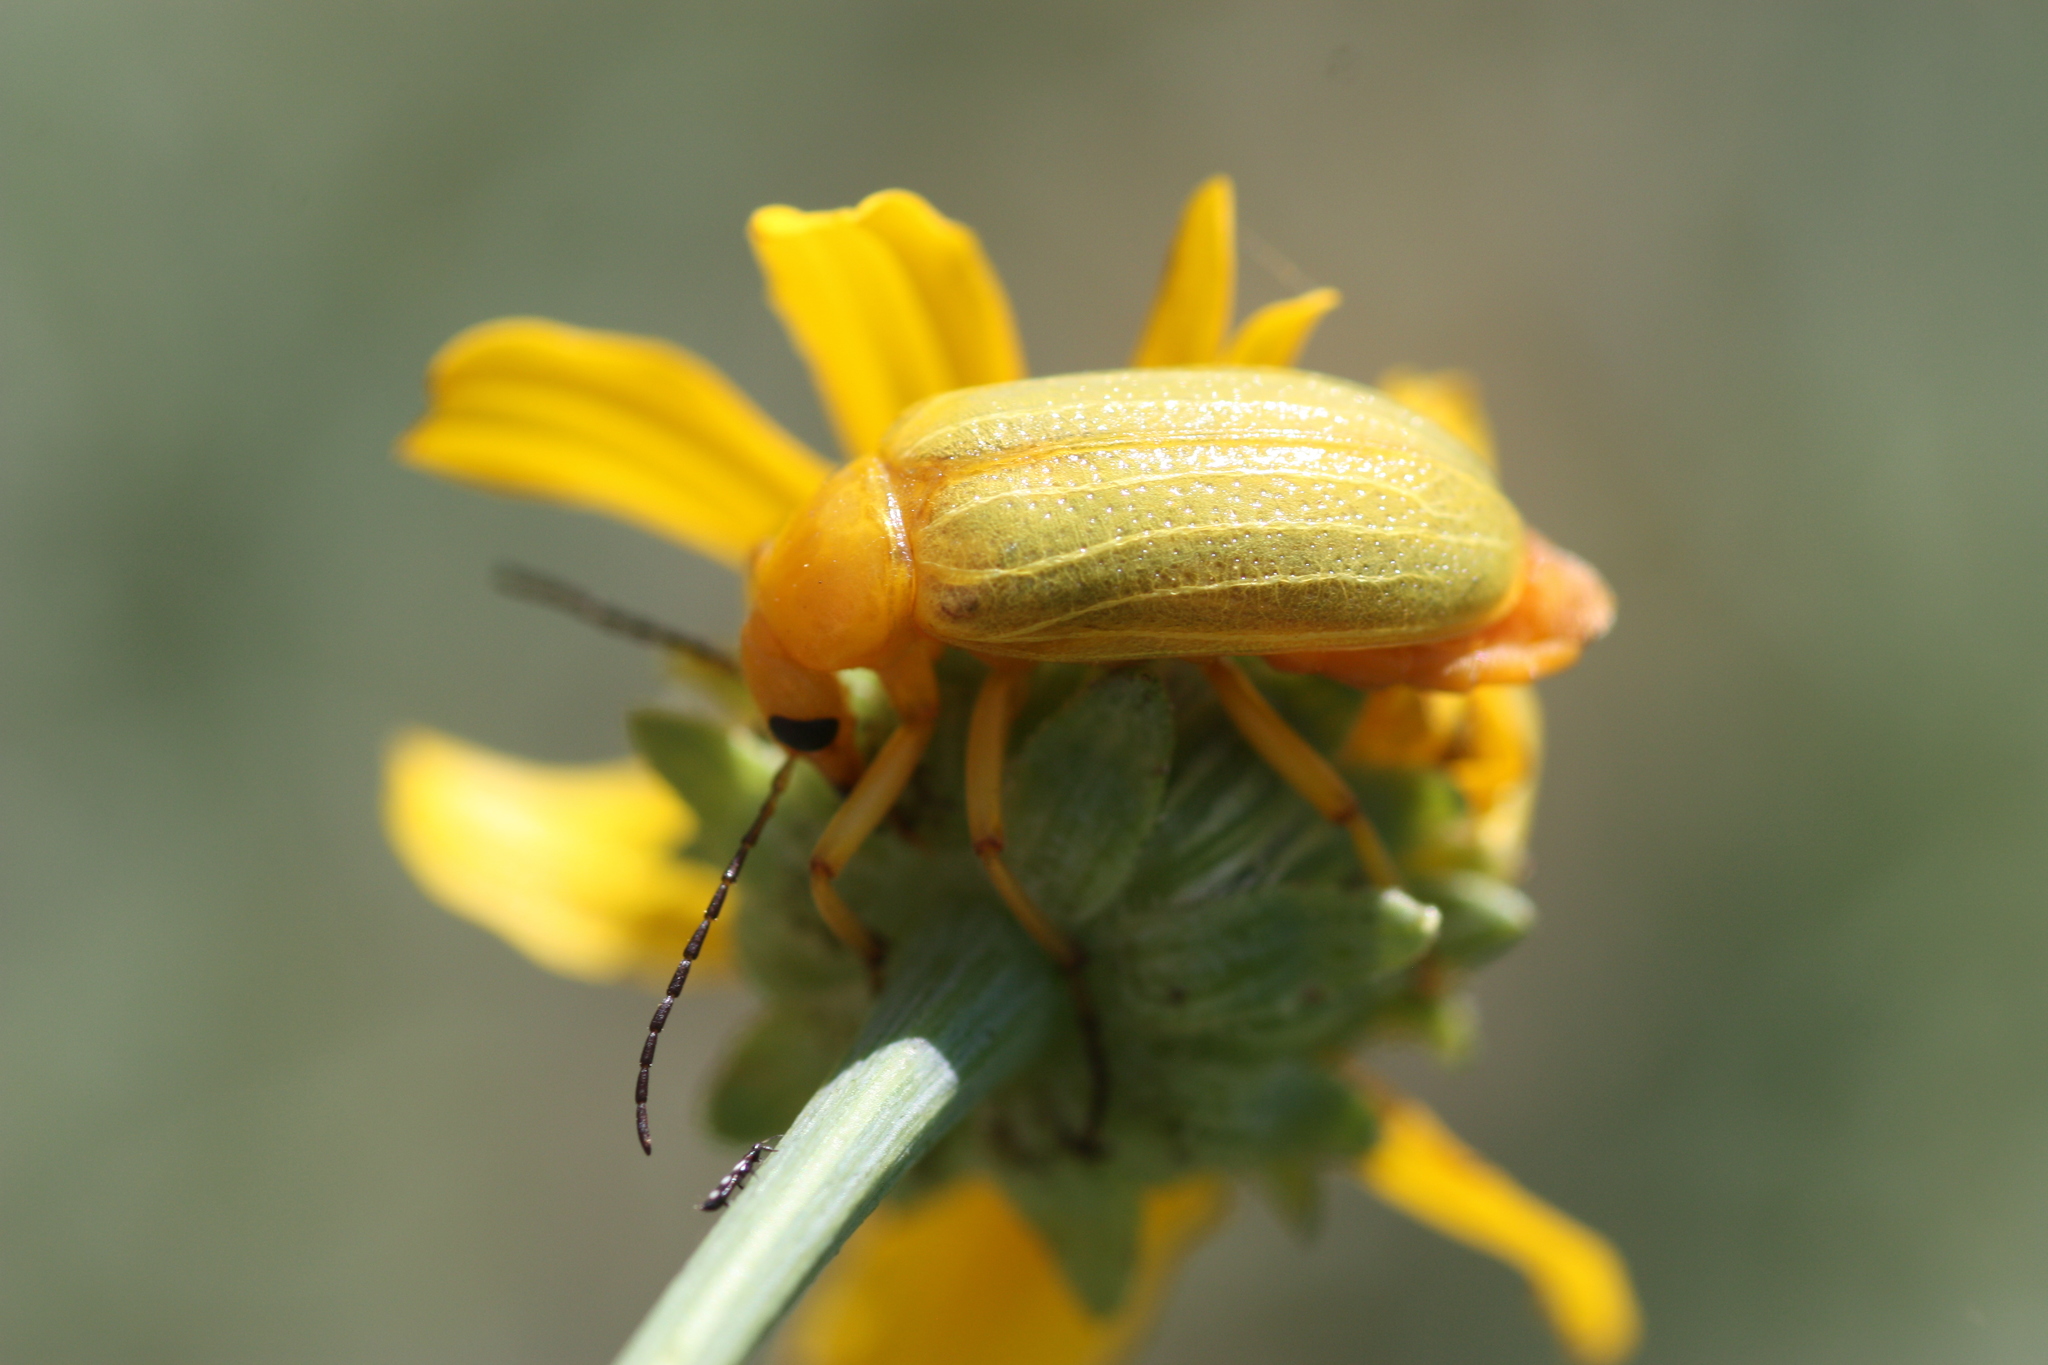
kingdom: Animalia
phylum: Arthropoda
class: Insecta
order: Coleoptera
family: Meloidae
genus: Zonitis
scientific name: Zonitis dunniana
